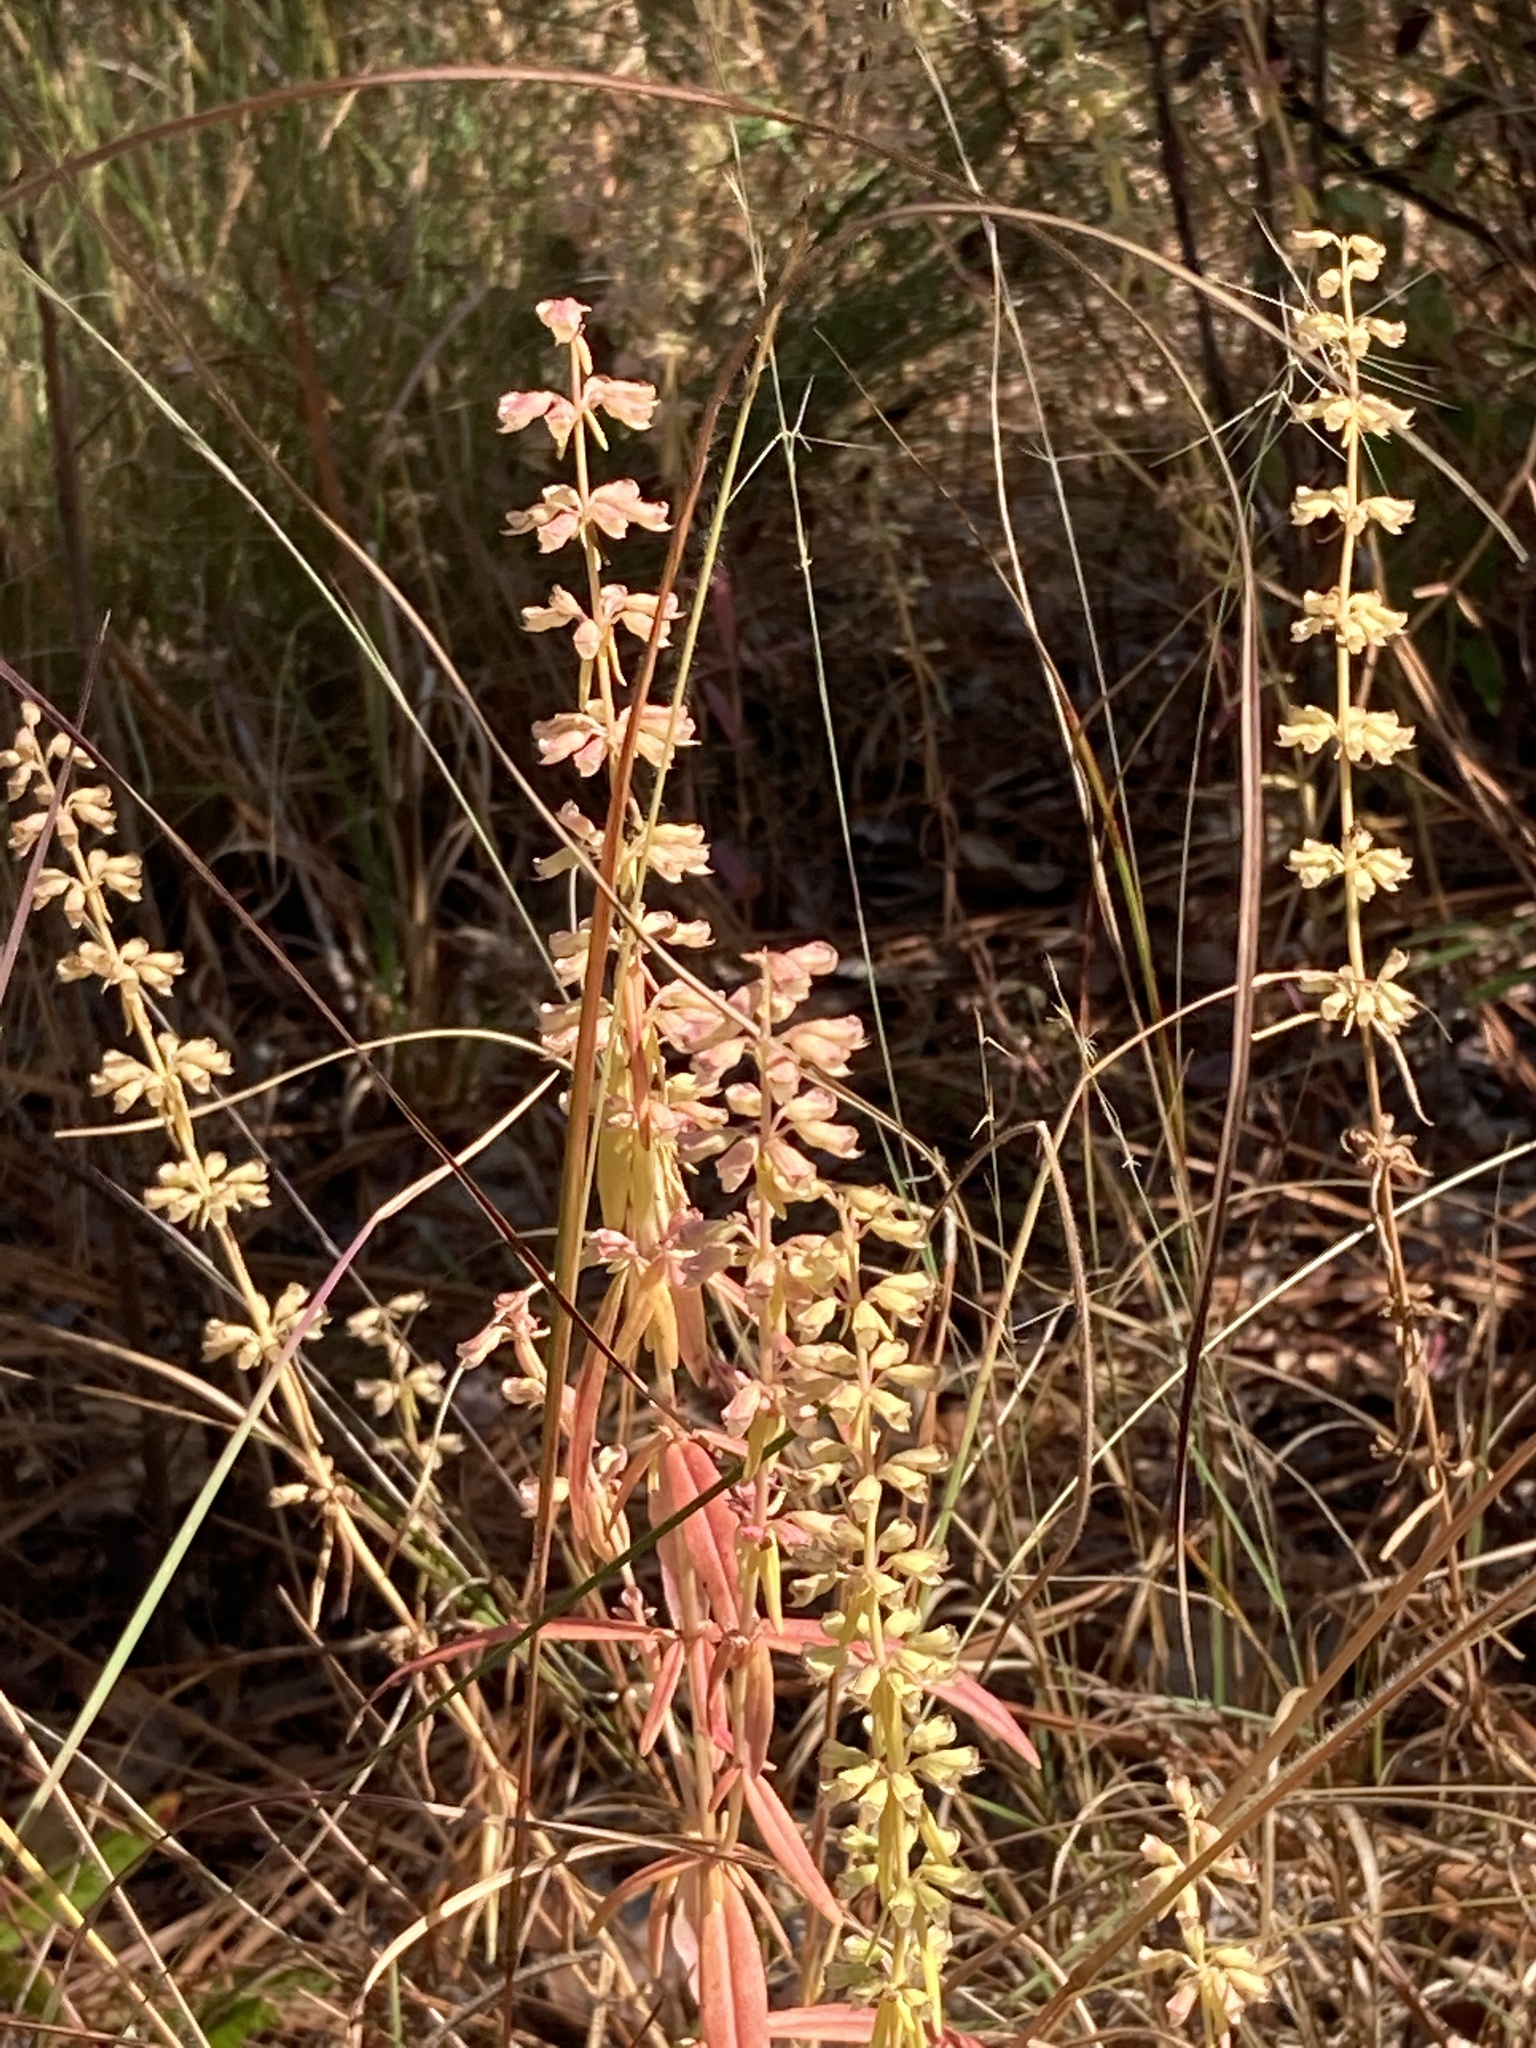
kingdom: Plantae
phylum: Tracheophyta
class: Magnoliopsida
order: Lamiales
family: Lamiaceae
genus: Dicerandra
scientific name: Dicerandra densiflora
